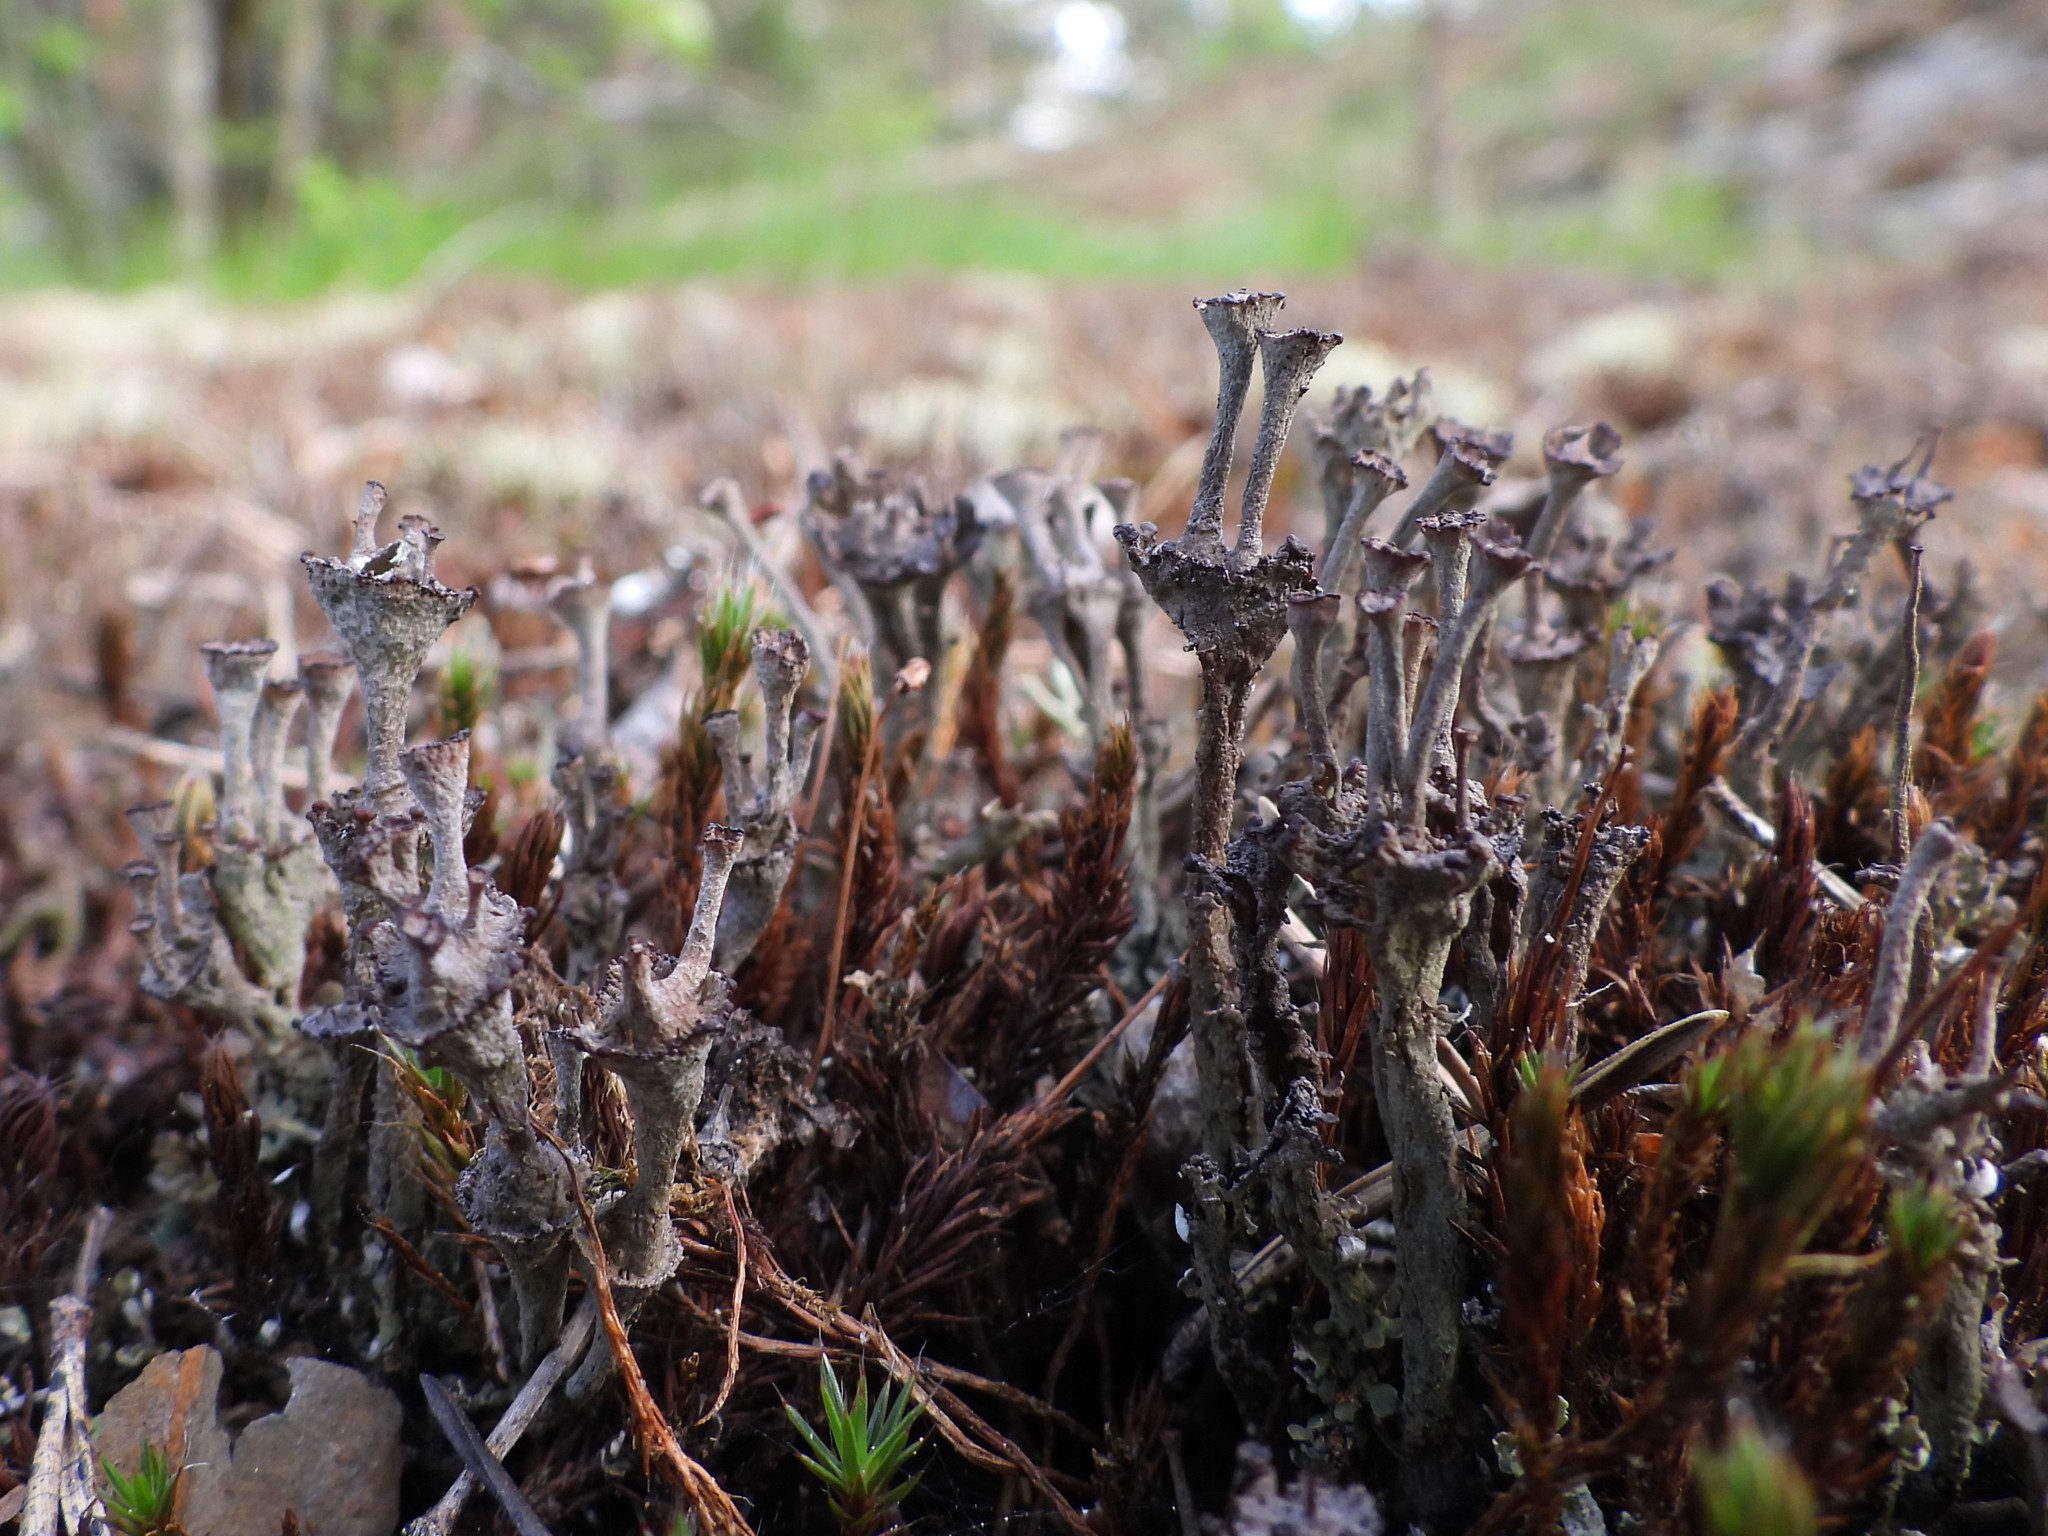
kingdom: Fungi
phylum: Ascomycota
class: Lecanoromycetes
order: Lecanorales
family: Cladoniaceae
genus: Cladonia
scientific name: Cladonia cervicornis
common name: Browned pixie-cup lichen
